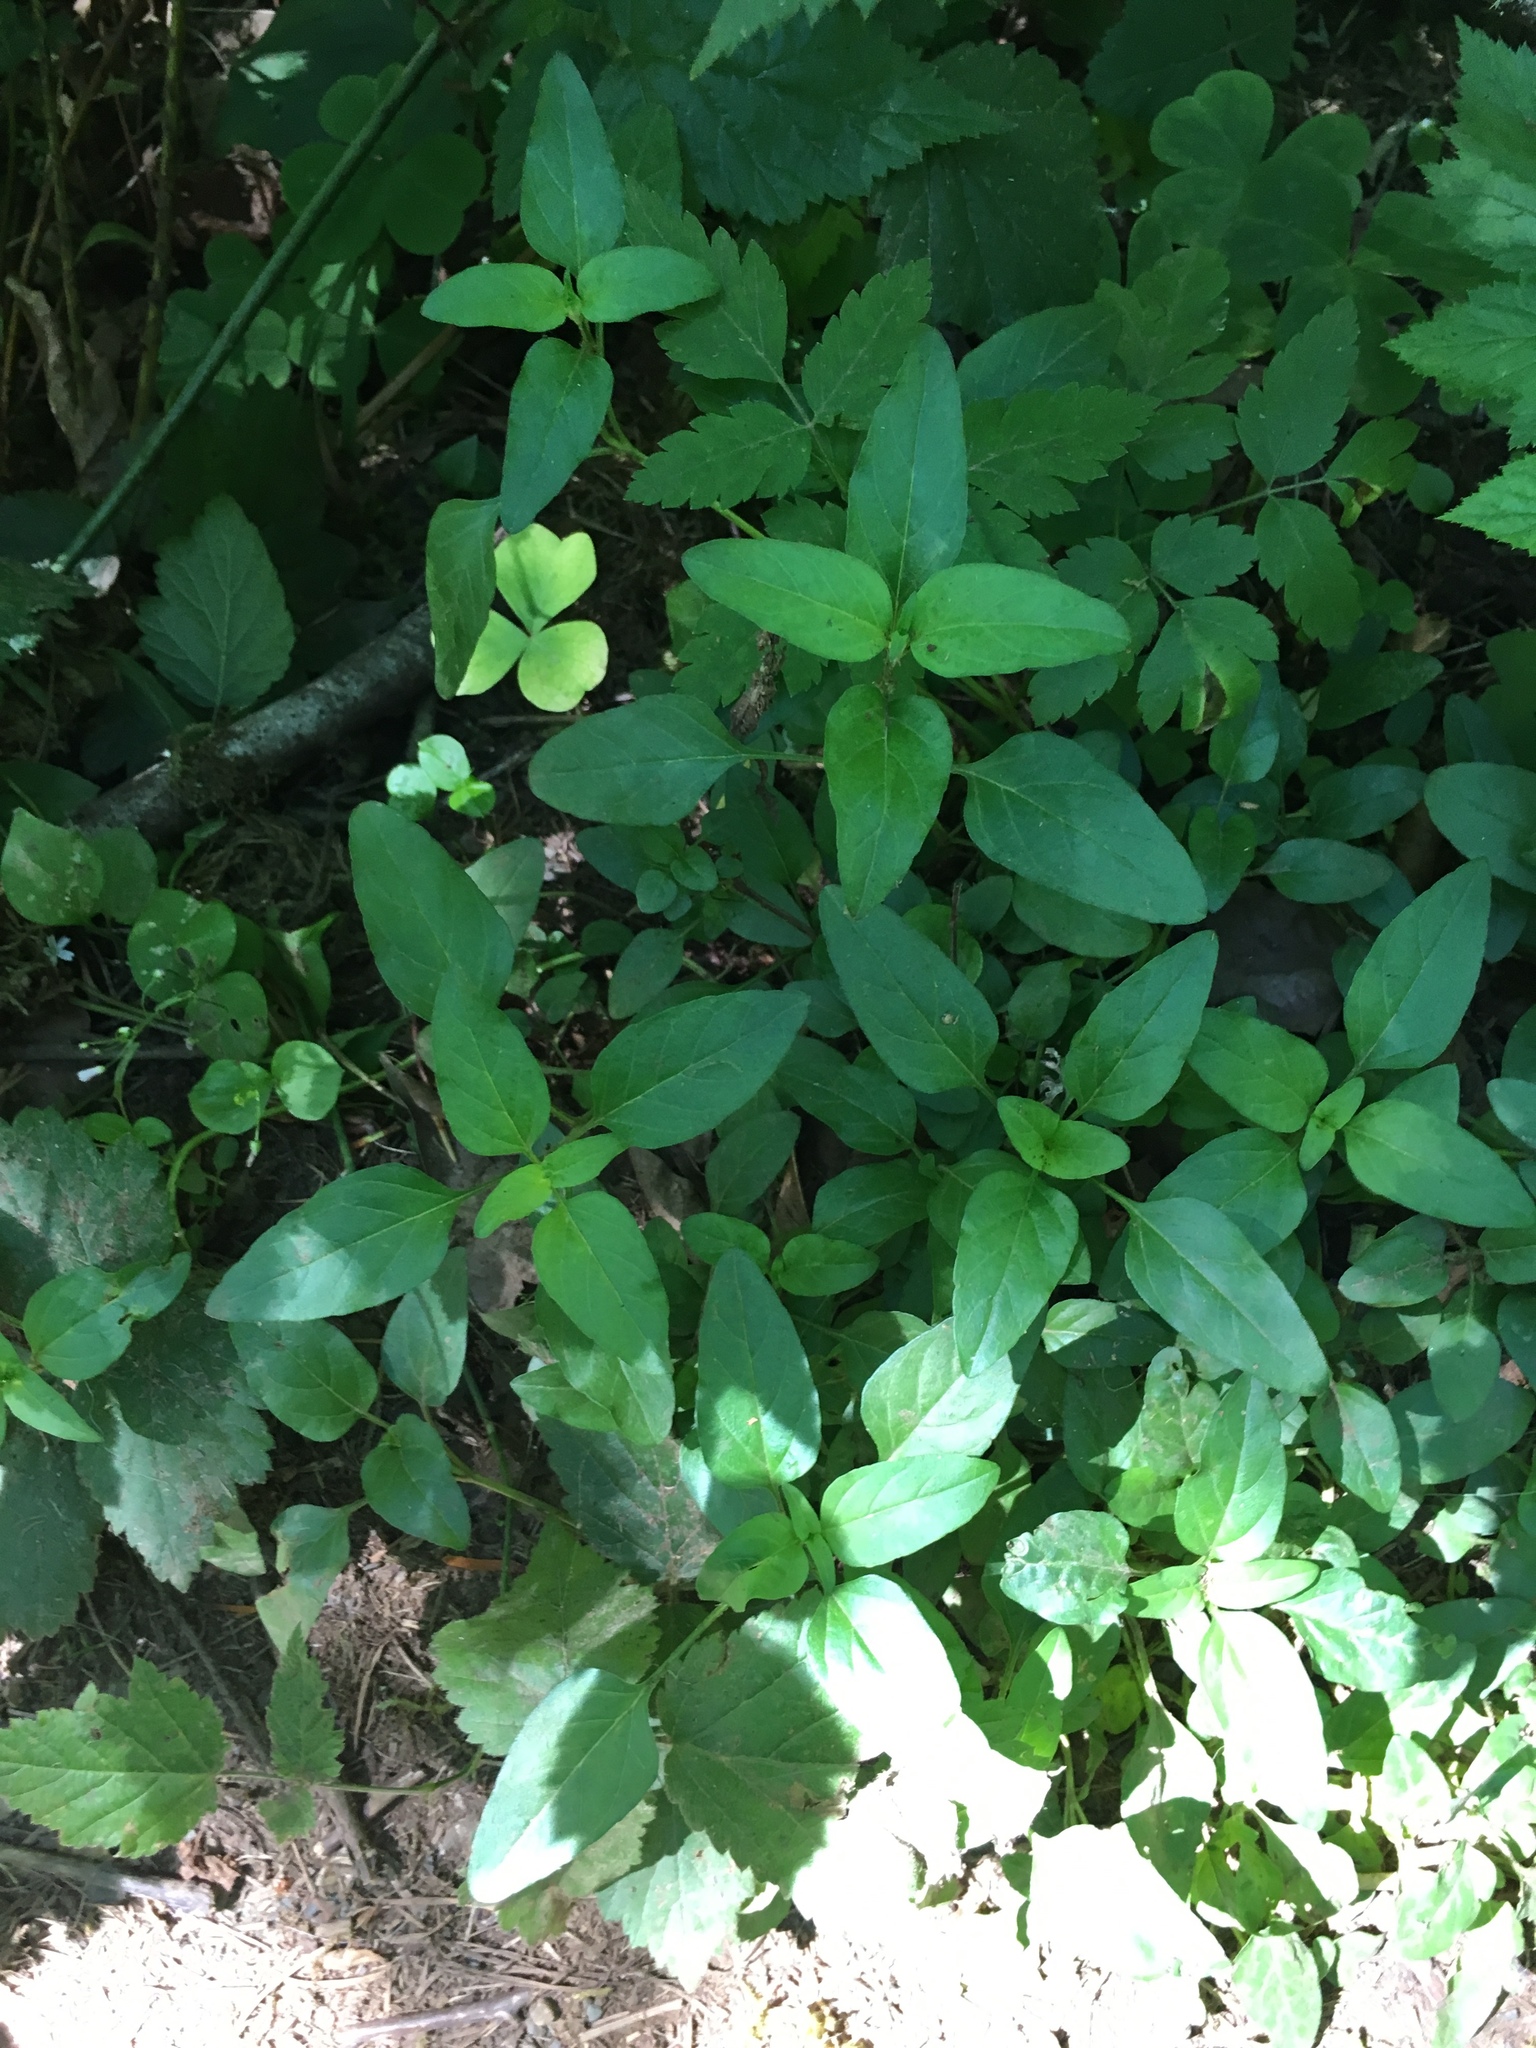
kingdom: Plantae
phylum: Tracheophyta
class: Magnoliopsida
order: Lamiales
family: Lamiaceae
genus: Prunella
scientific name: Prunella vulgaris
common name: Heal-all
